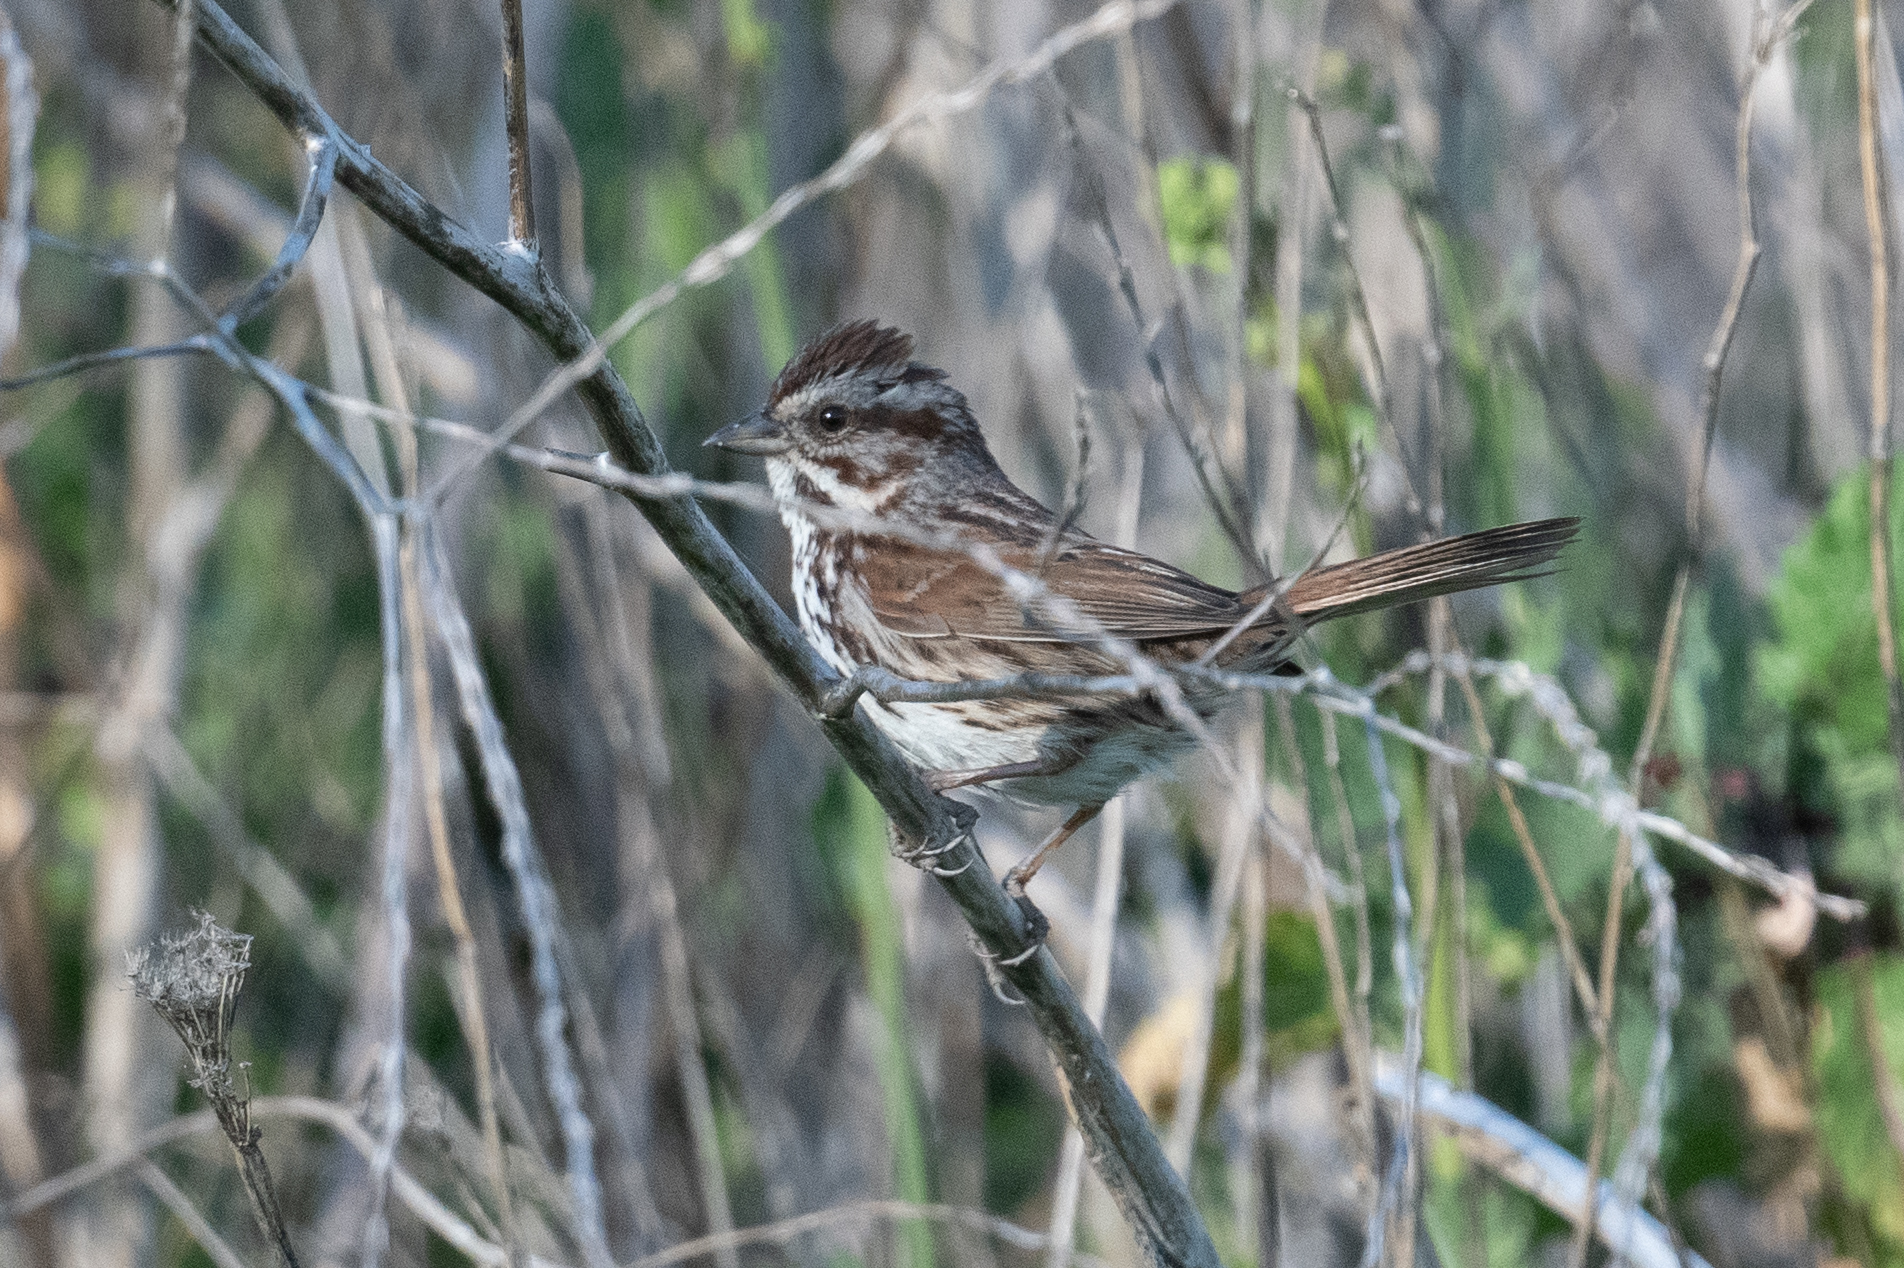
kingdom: Animalia
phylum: Chordata
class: Aves
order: Passeriformes
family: Passerellidae
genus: Melospiza
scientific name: Melospiza melodia
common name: Song sparrow
